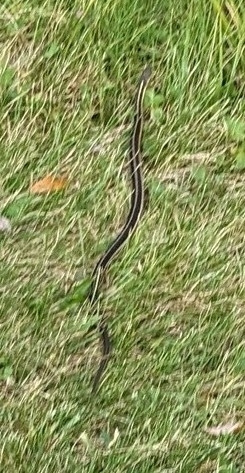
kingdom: Animalia
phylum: Chordata
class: Squamata
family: Colubridae
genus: Thamnophis
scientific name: Thamnophis sirtalis
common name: Common garter snake
